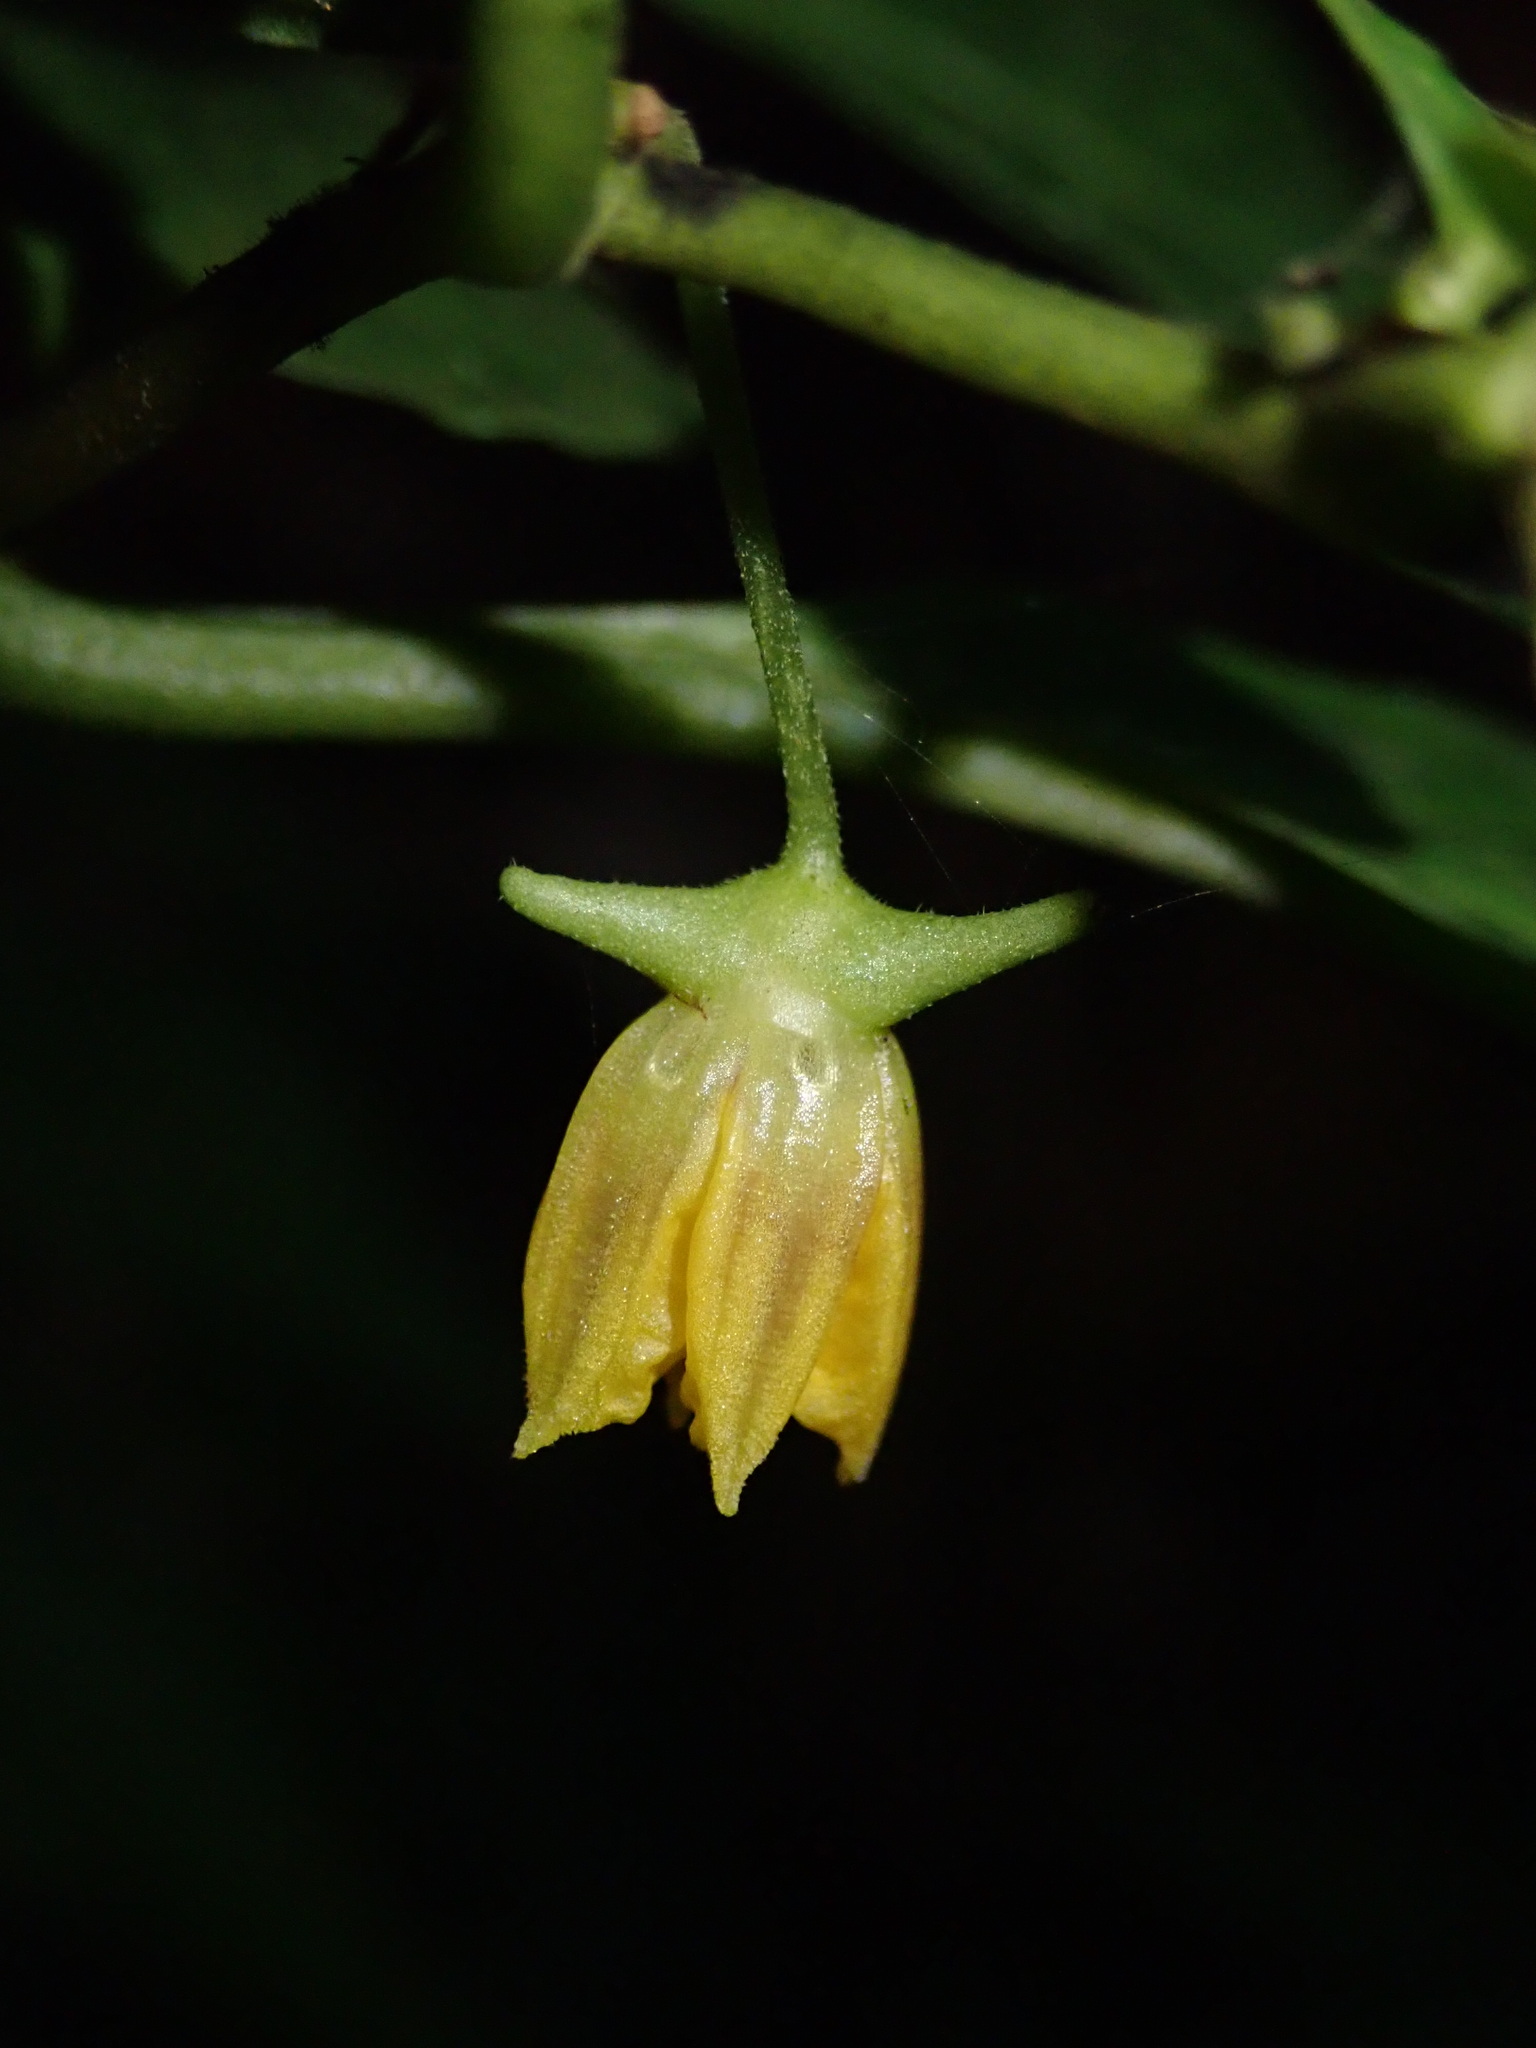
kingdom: Plantae
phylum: Tracheophyta
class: Magnoliopsida
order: Solanales
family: Solanaceae
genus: Capsicum
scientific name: Capsicum lycianthoides
